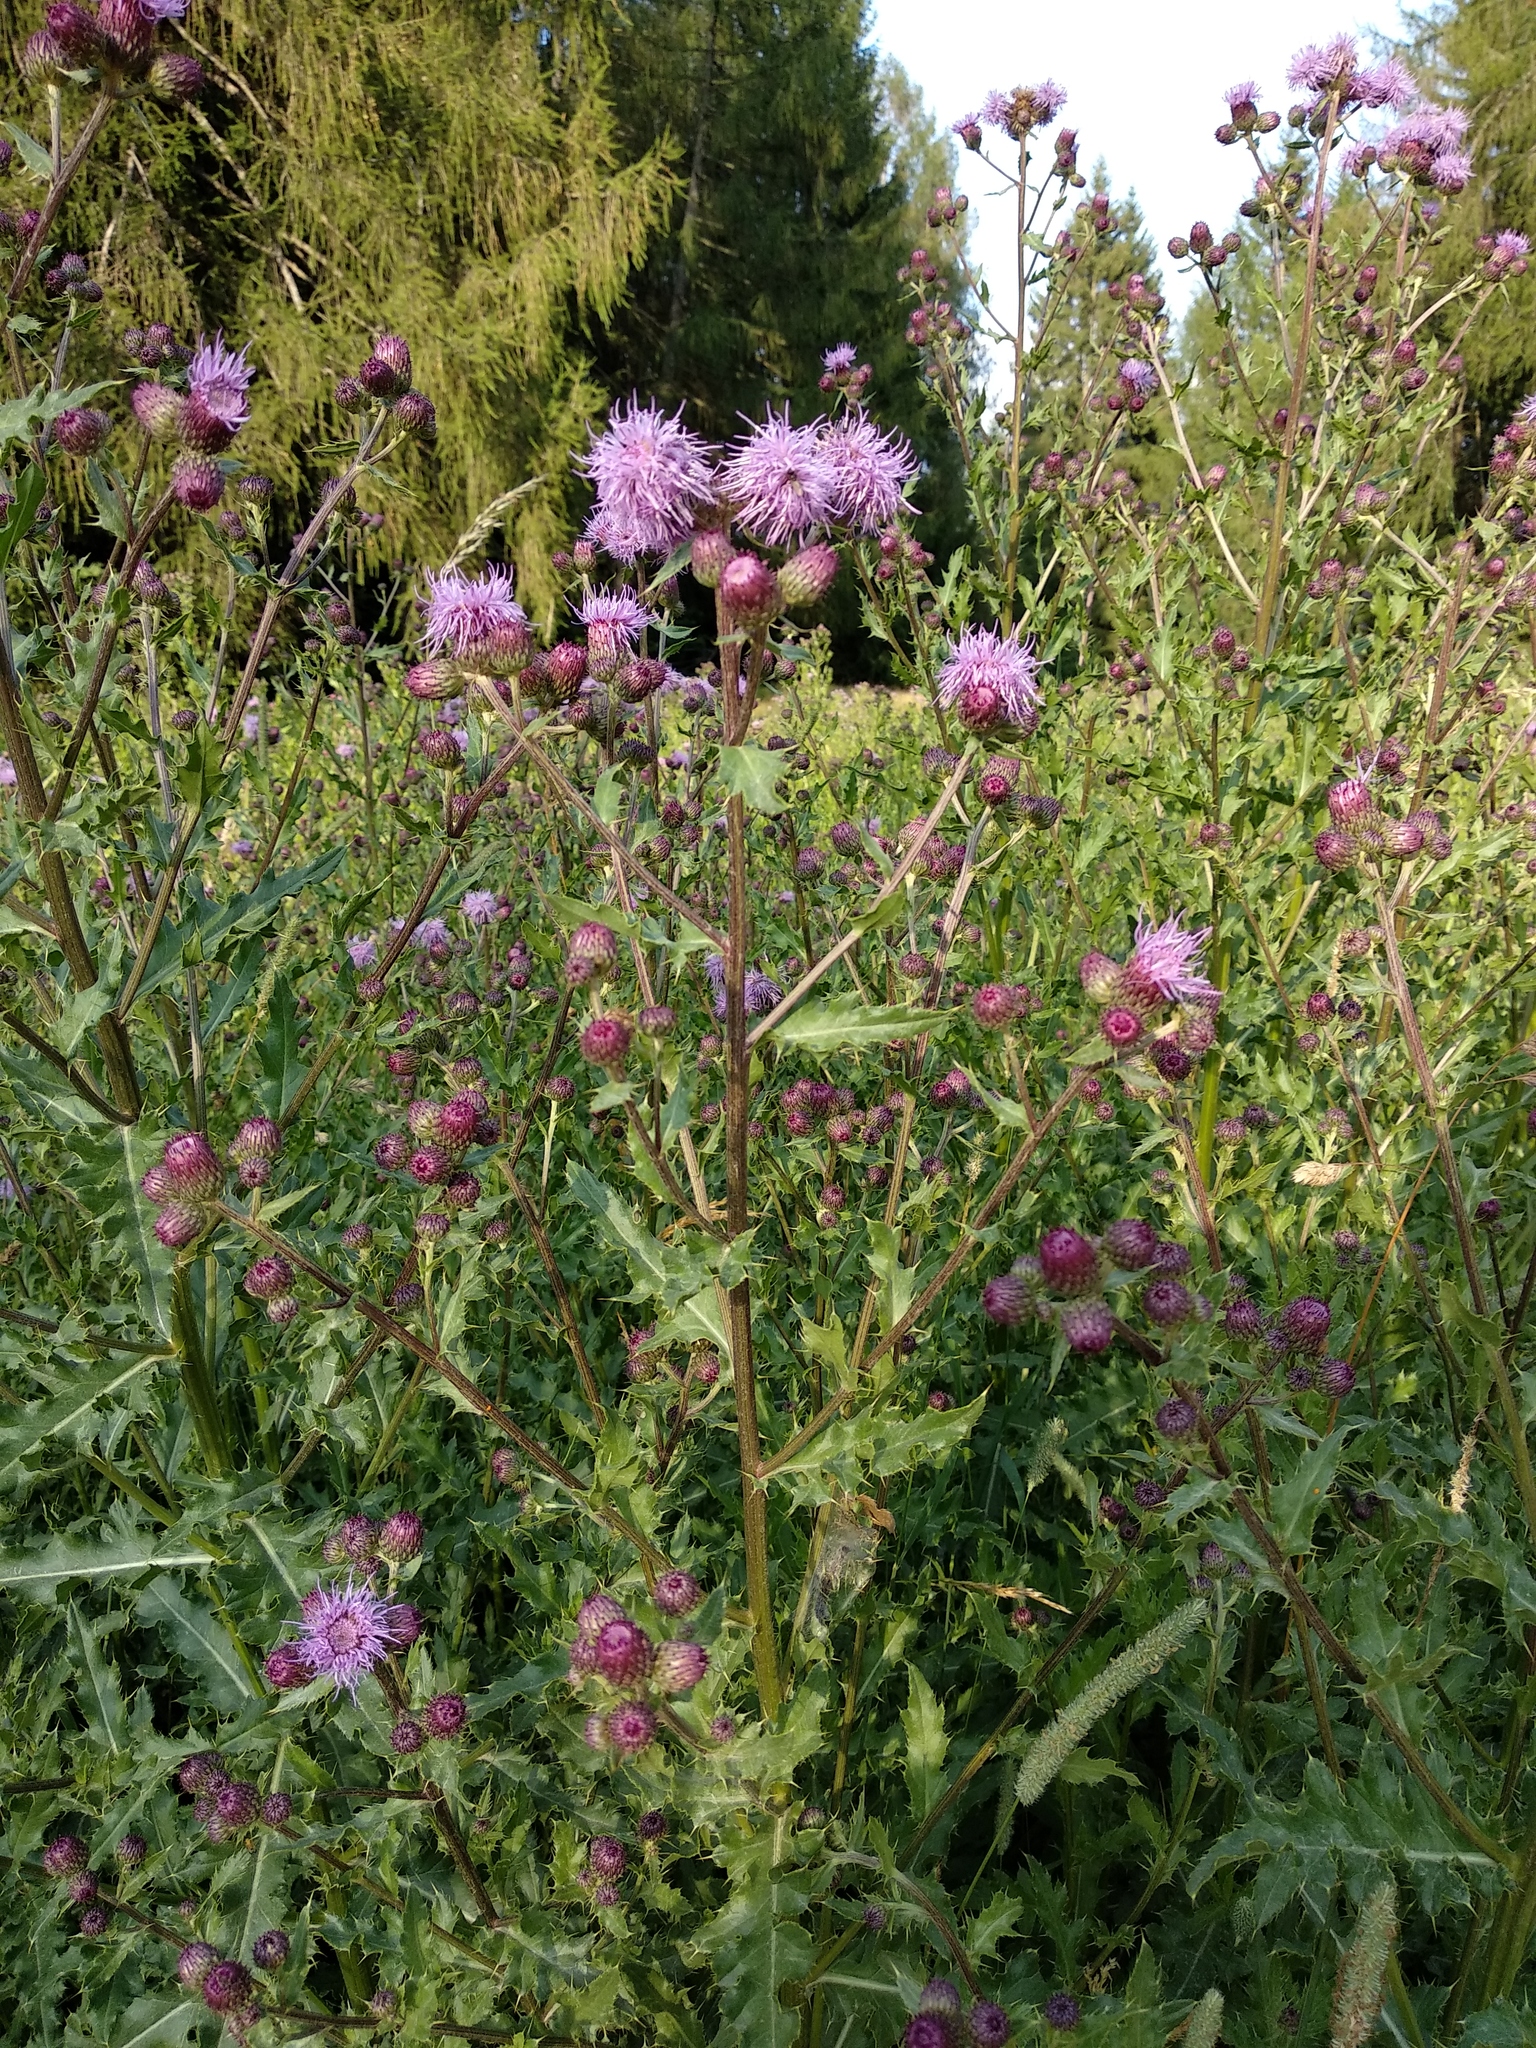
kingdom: Plantae
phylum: Tracheophyta
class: Magnoliopsida
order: Asterales
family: Asteraceae
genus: Cirsium
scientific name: Cirsium arvense
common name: Creeping thistle
